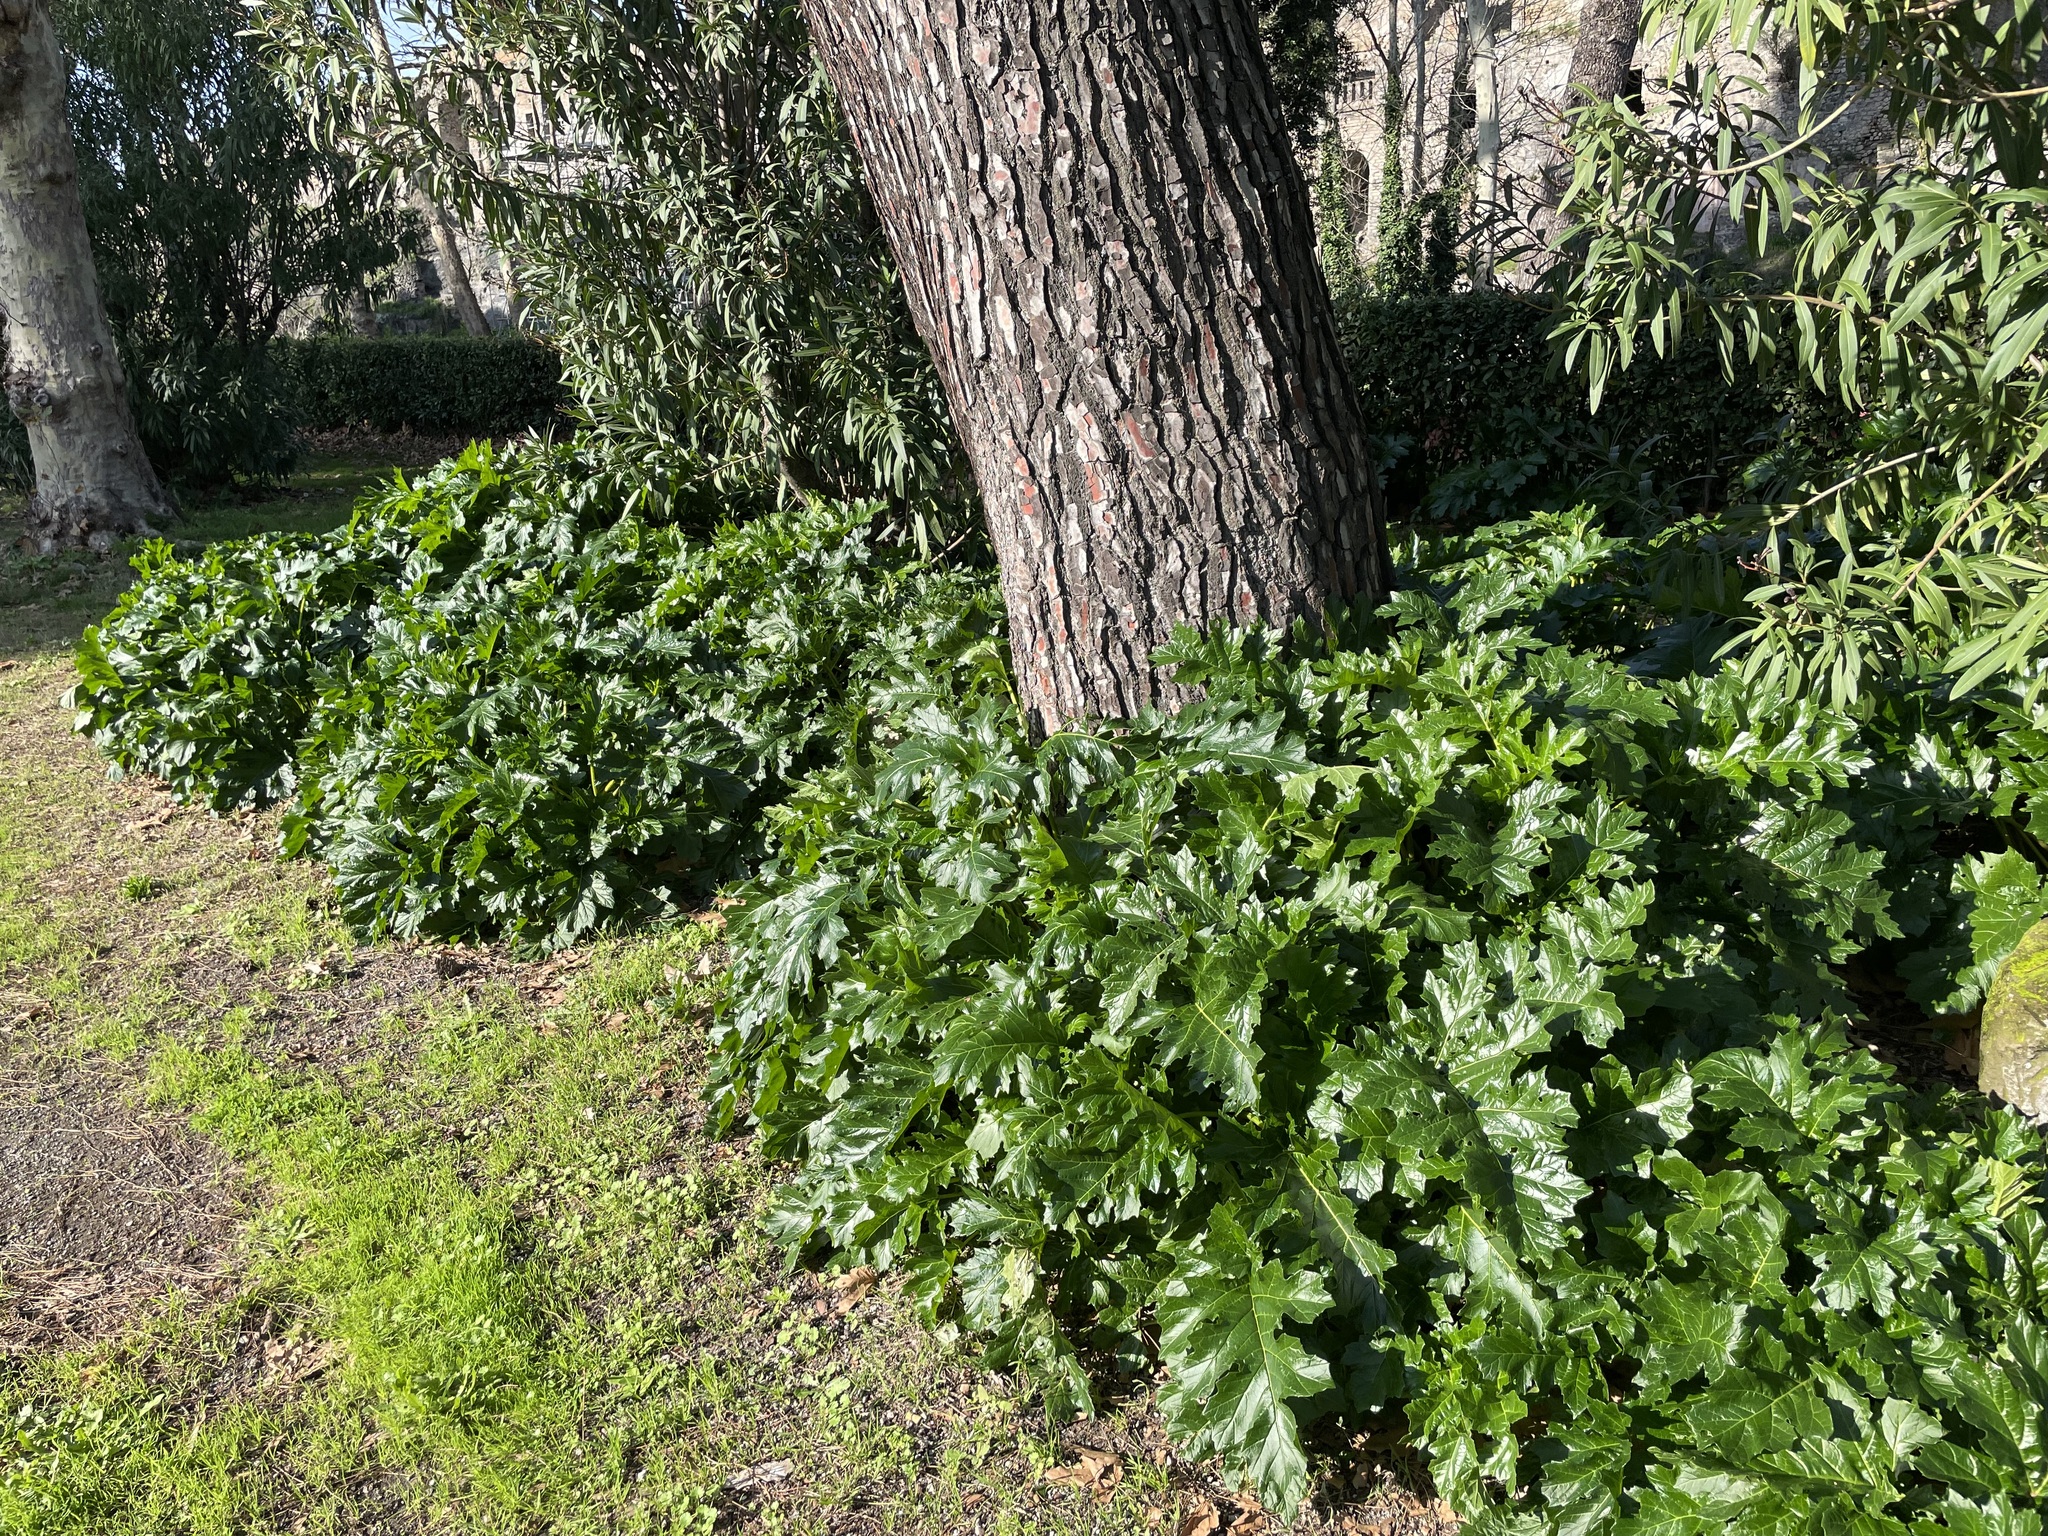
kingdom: Plantae
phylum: Tracheophyta
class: Magnoliopsida
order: Lamiales
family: Acanthaceae
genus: Acanthus
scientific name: Acanthus mollis
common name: Bear's-breech
